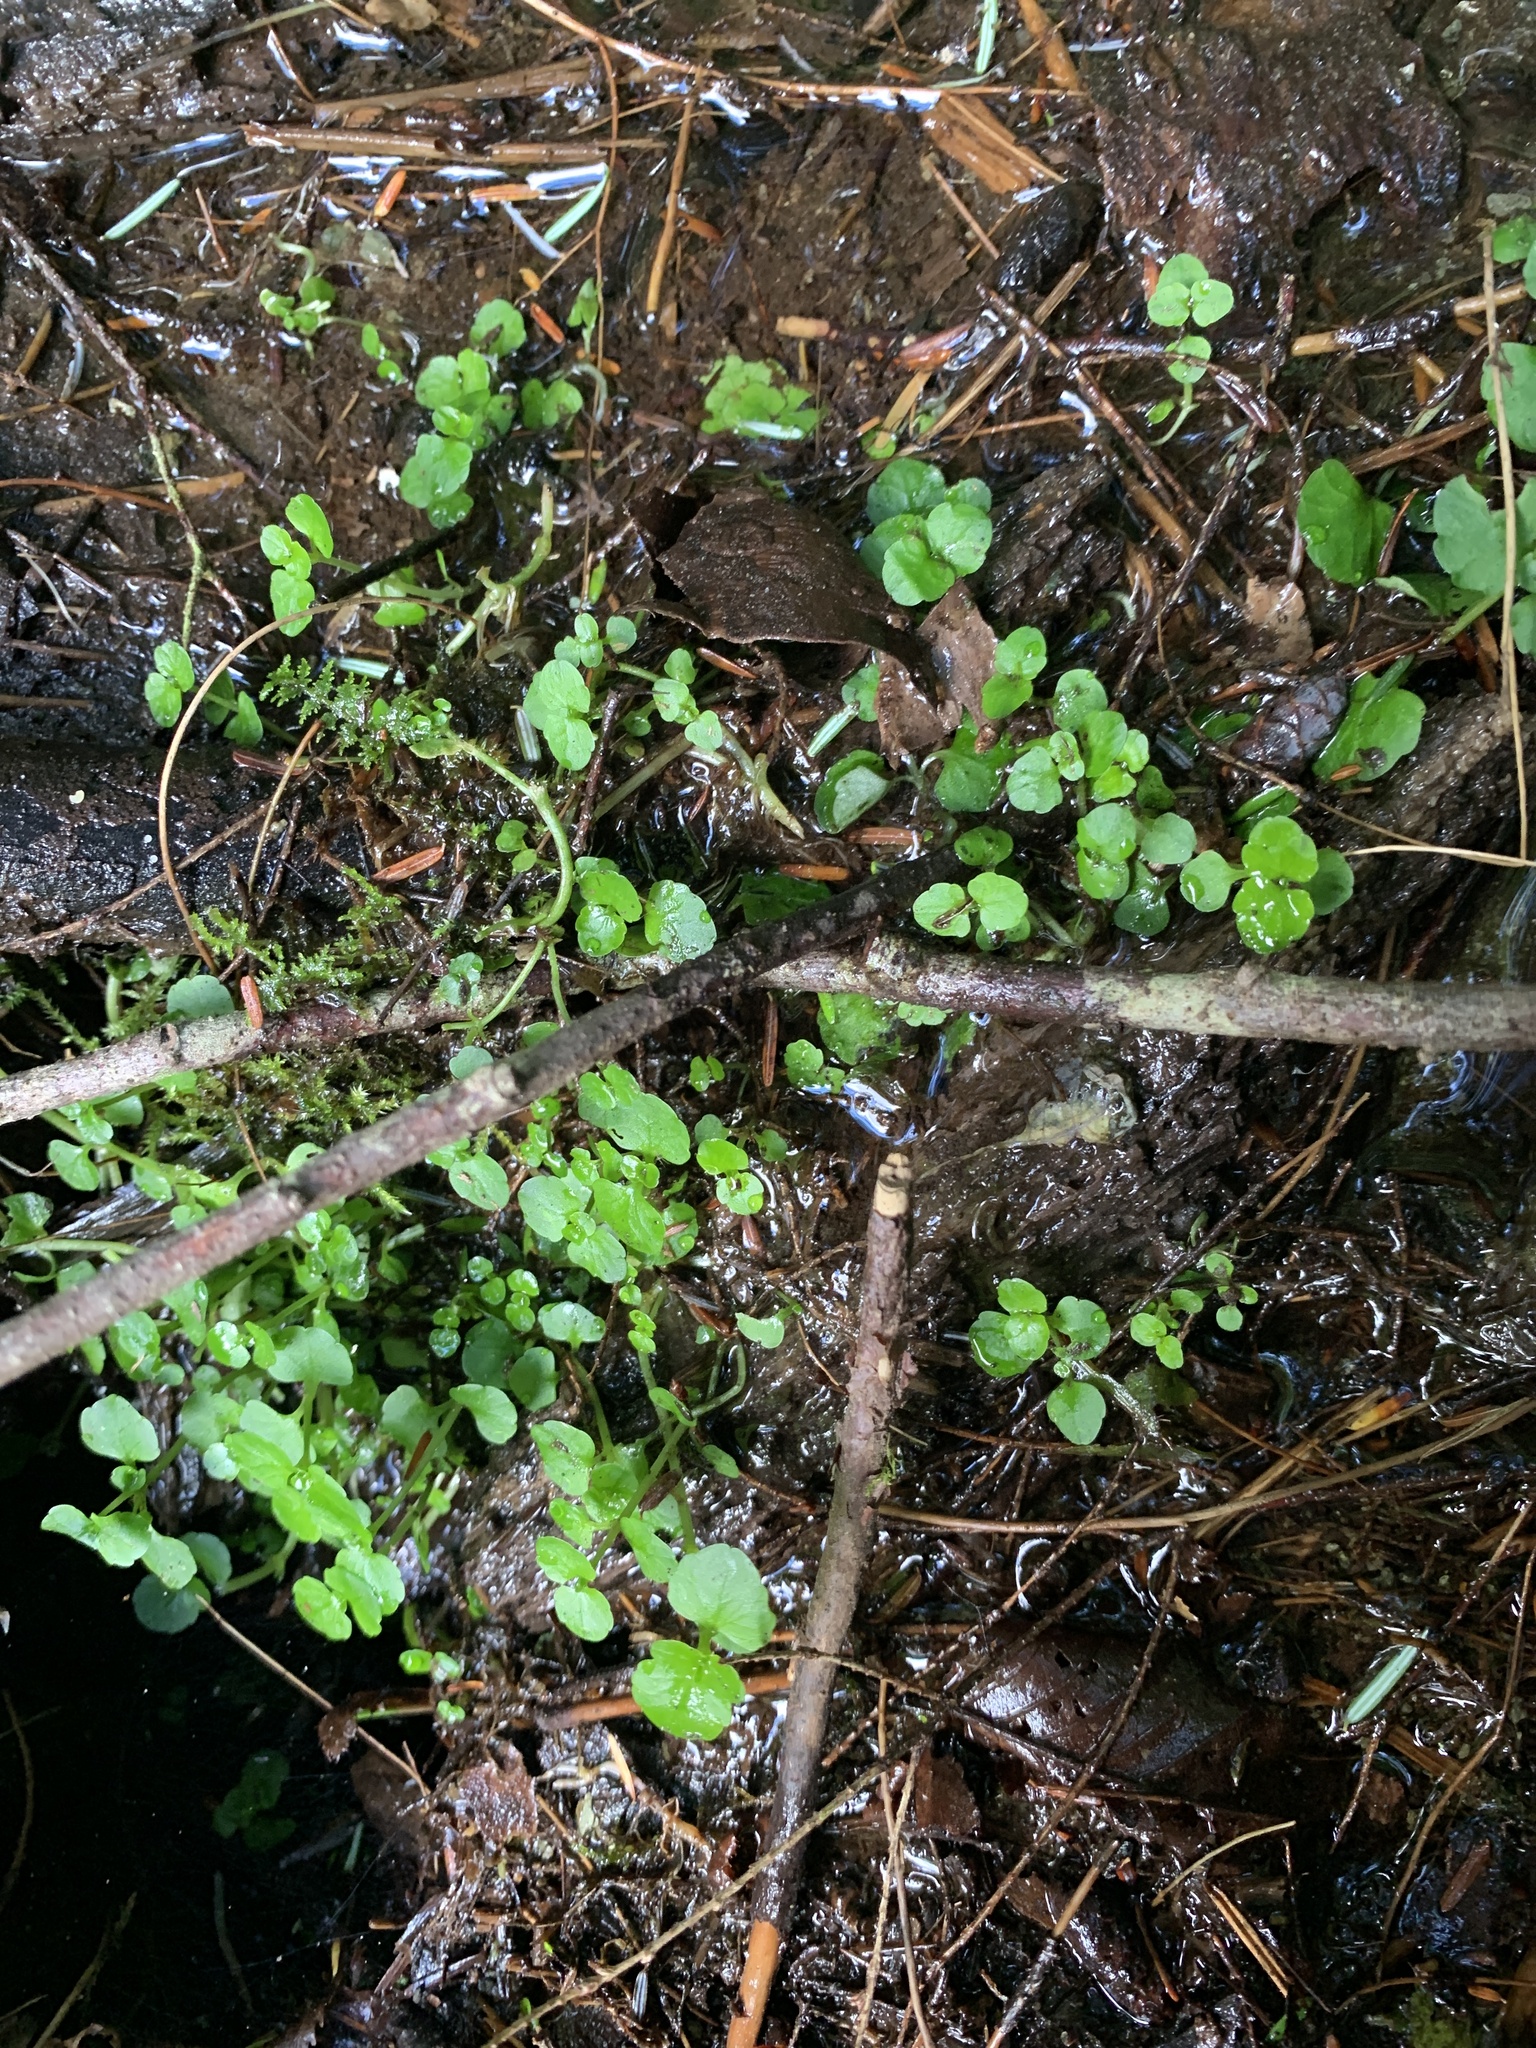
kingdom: Plantae
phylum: Tracheophyta
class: Magnoliopsida
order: Saxifragales
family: Saxifragaceae
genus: Chrysosplenium
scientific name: Chrysosplenium americanum
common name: American golden-saxifrage
